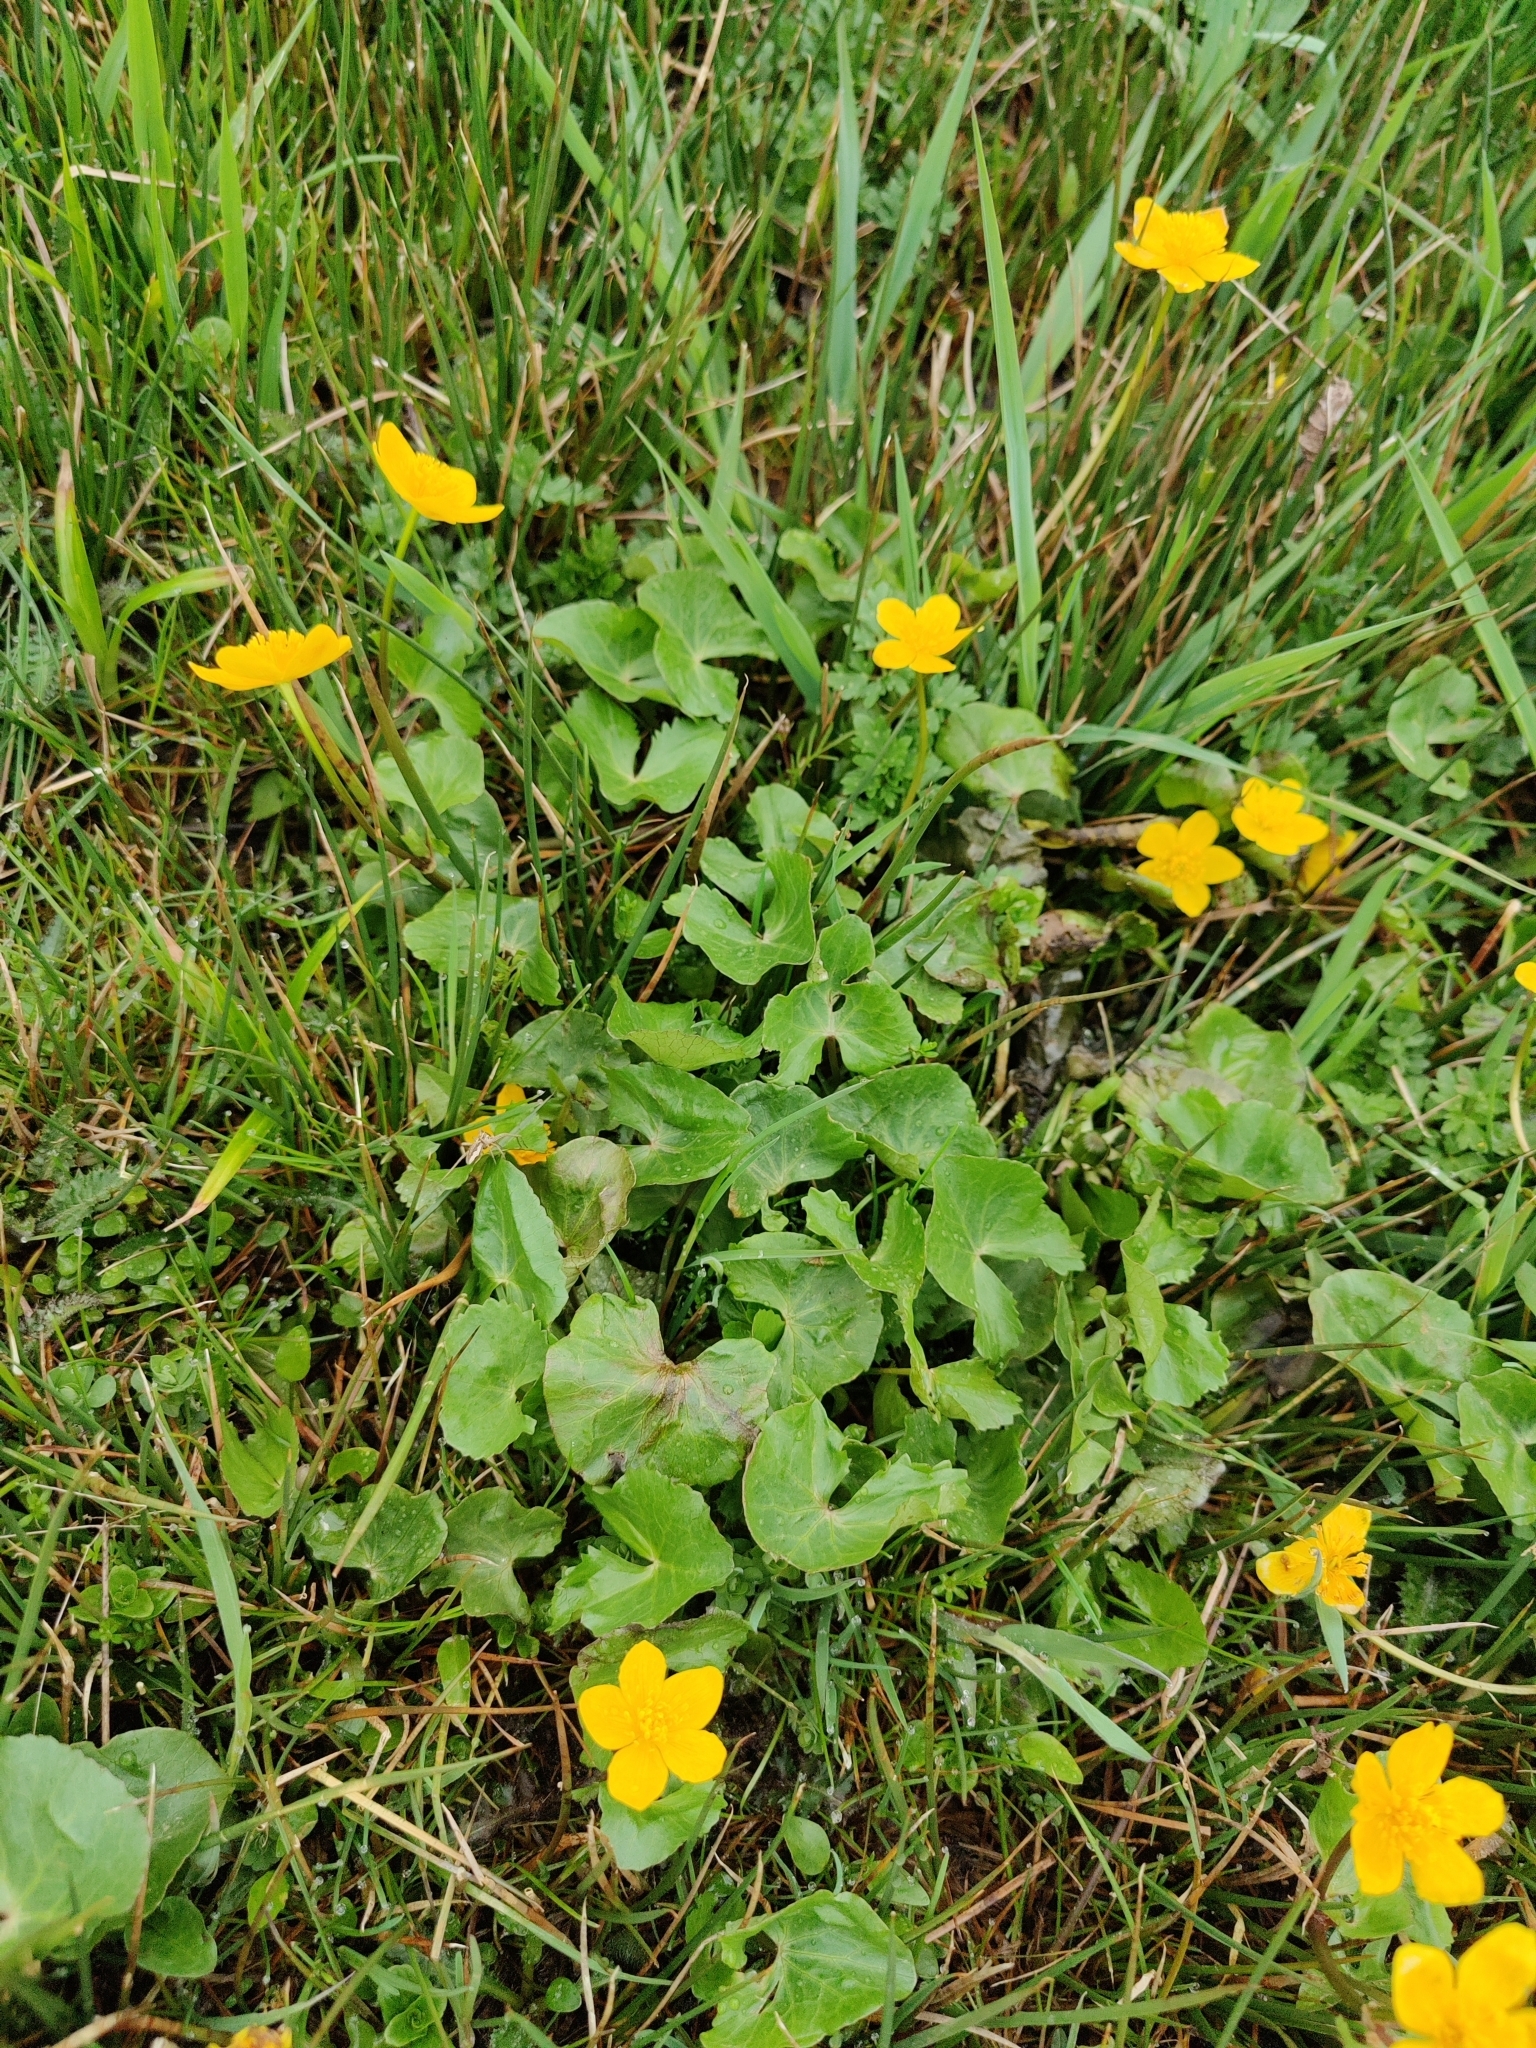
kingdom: Plantae
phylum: Tracheophyta
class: Magnoliopsida
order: Ranunculales
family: Ranunculaceae
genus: Caltha
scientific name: Caltha palustris
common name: Marsh marigold
